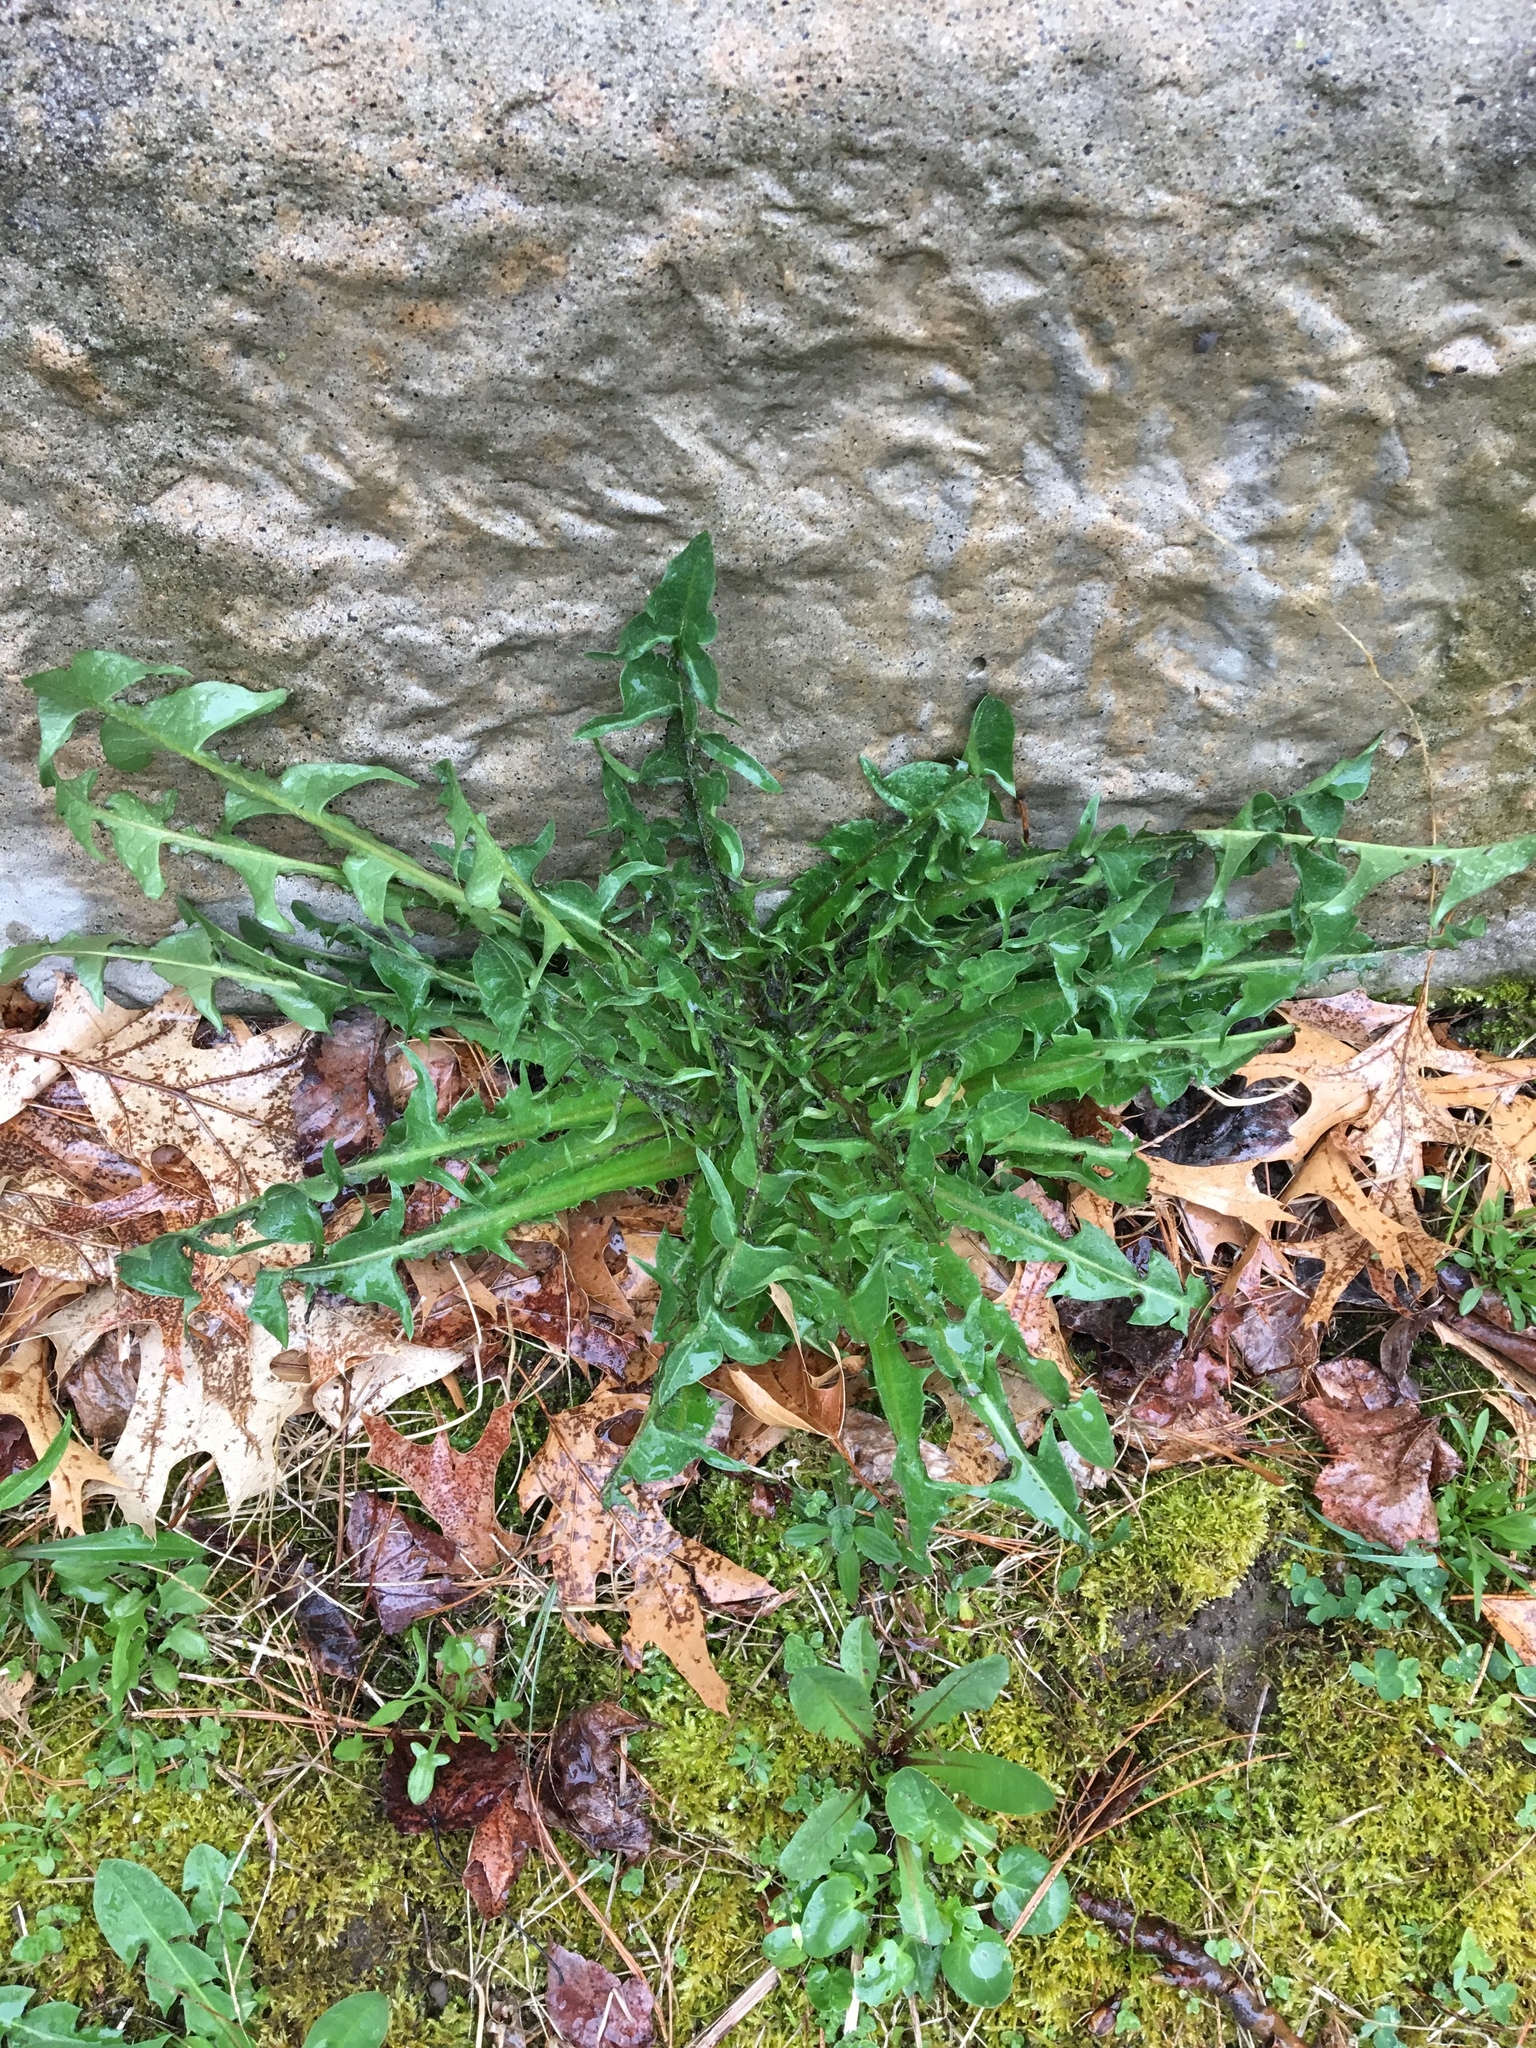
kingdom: Plantae
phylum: Tracheophyta
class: Magnoliopsida
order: Asterales
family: Asteraceae
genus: Taraxacum
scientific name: Taraxacum officinale
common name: Common dandelion
